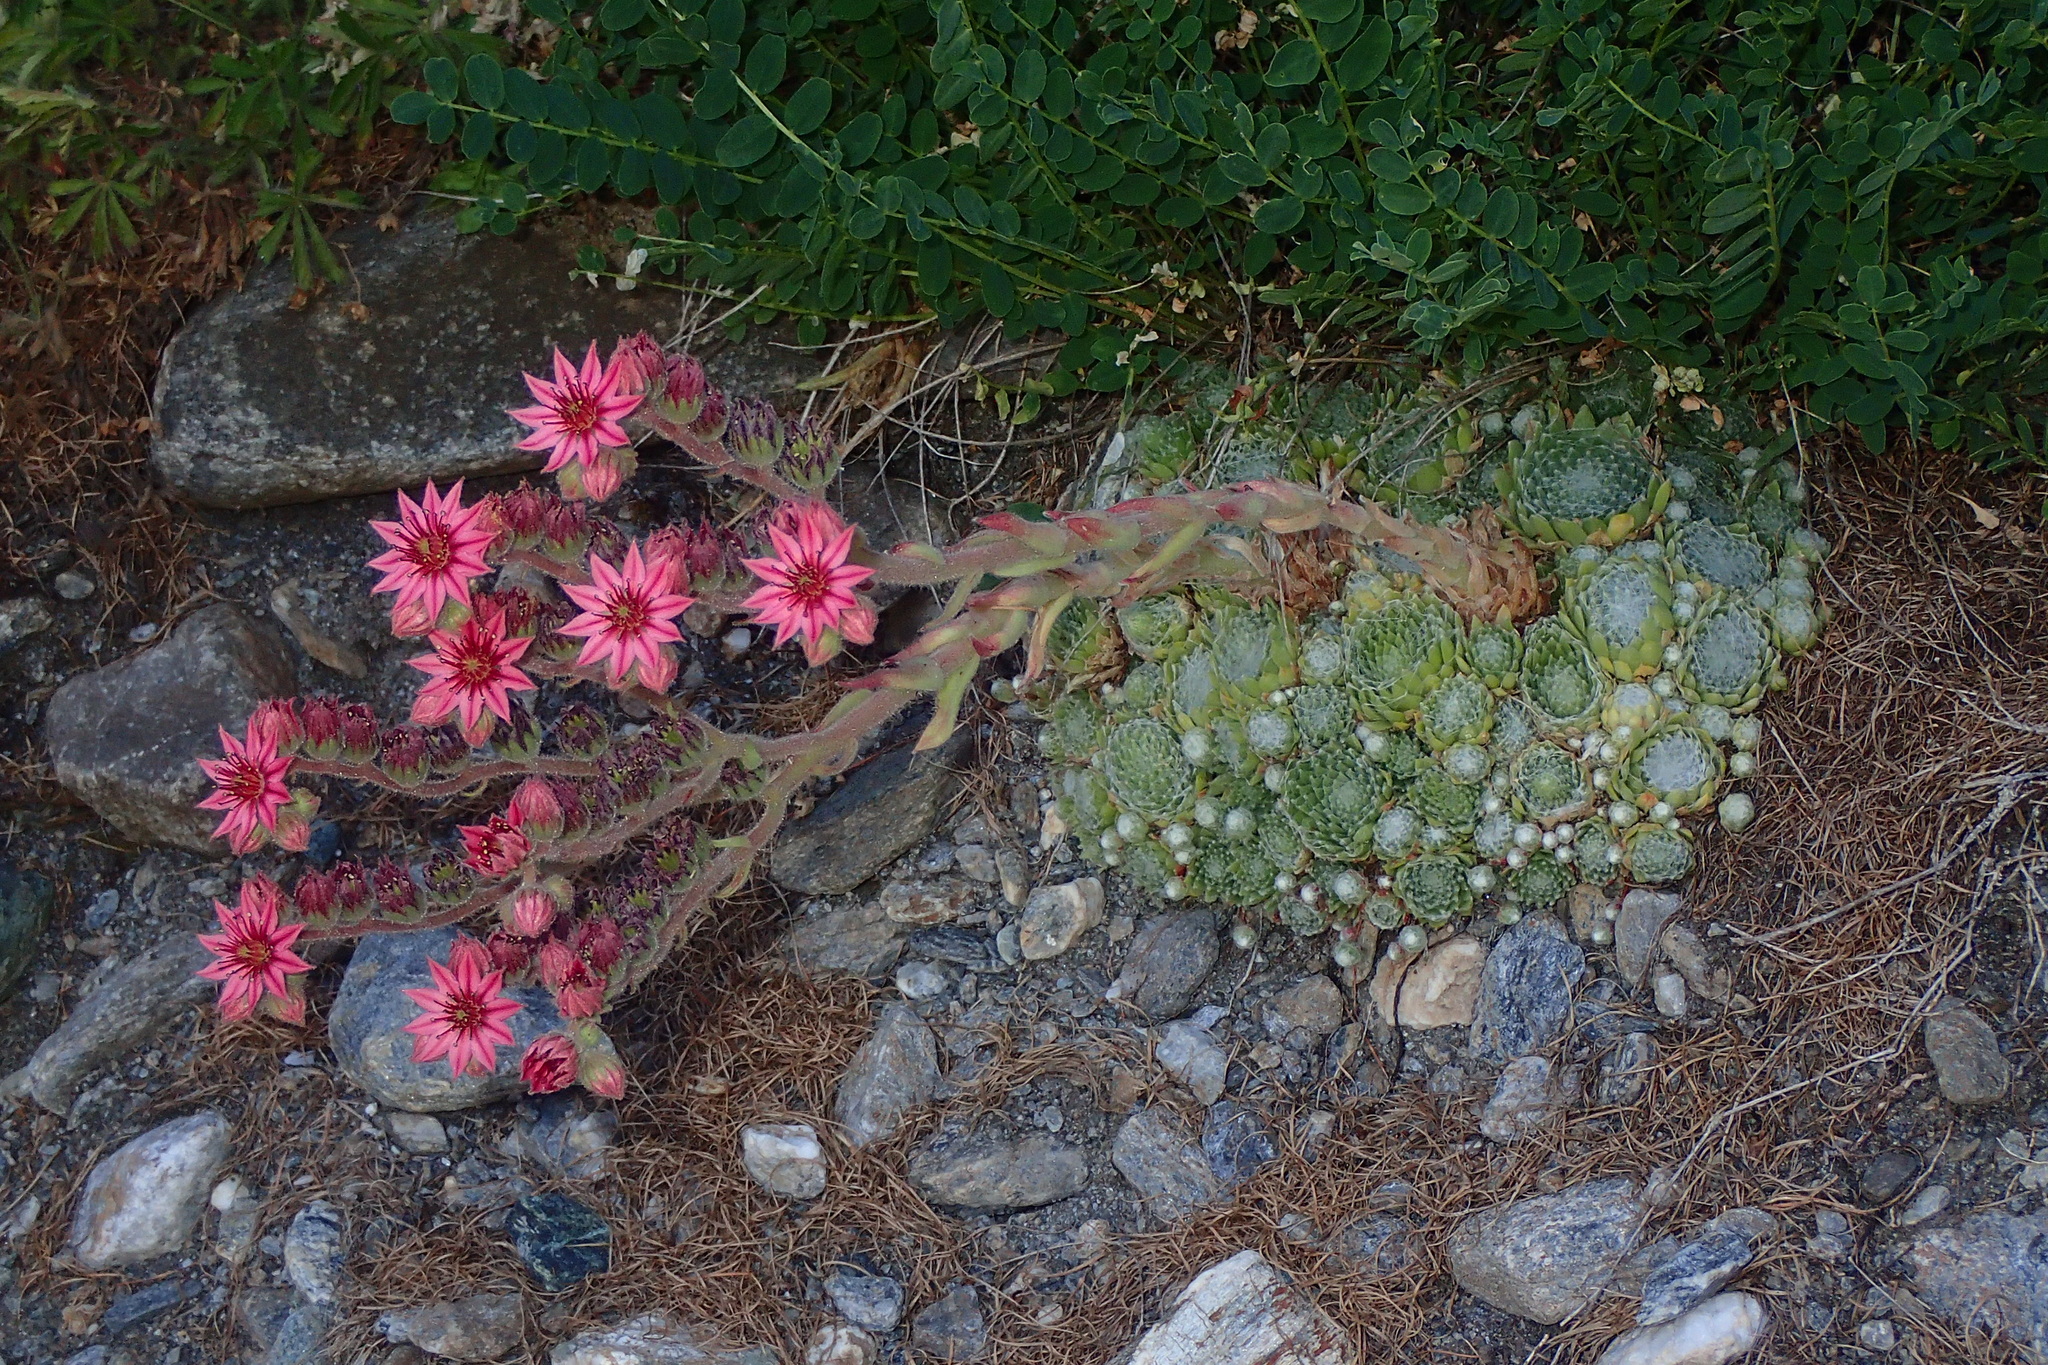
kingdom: Plantae
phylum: Tracheophyta
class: Magnoliopsida
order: Saxifragales
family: Crassulaceae
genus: Sempervivum
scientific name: Sempervivum arachnoideum
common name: Cobweb house-leek
